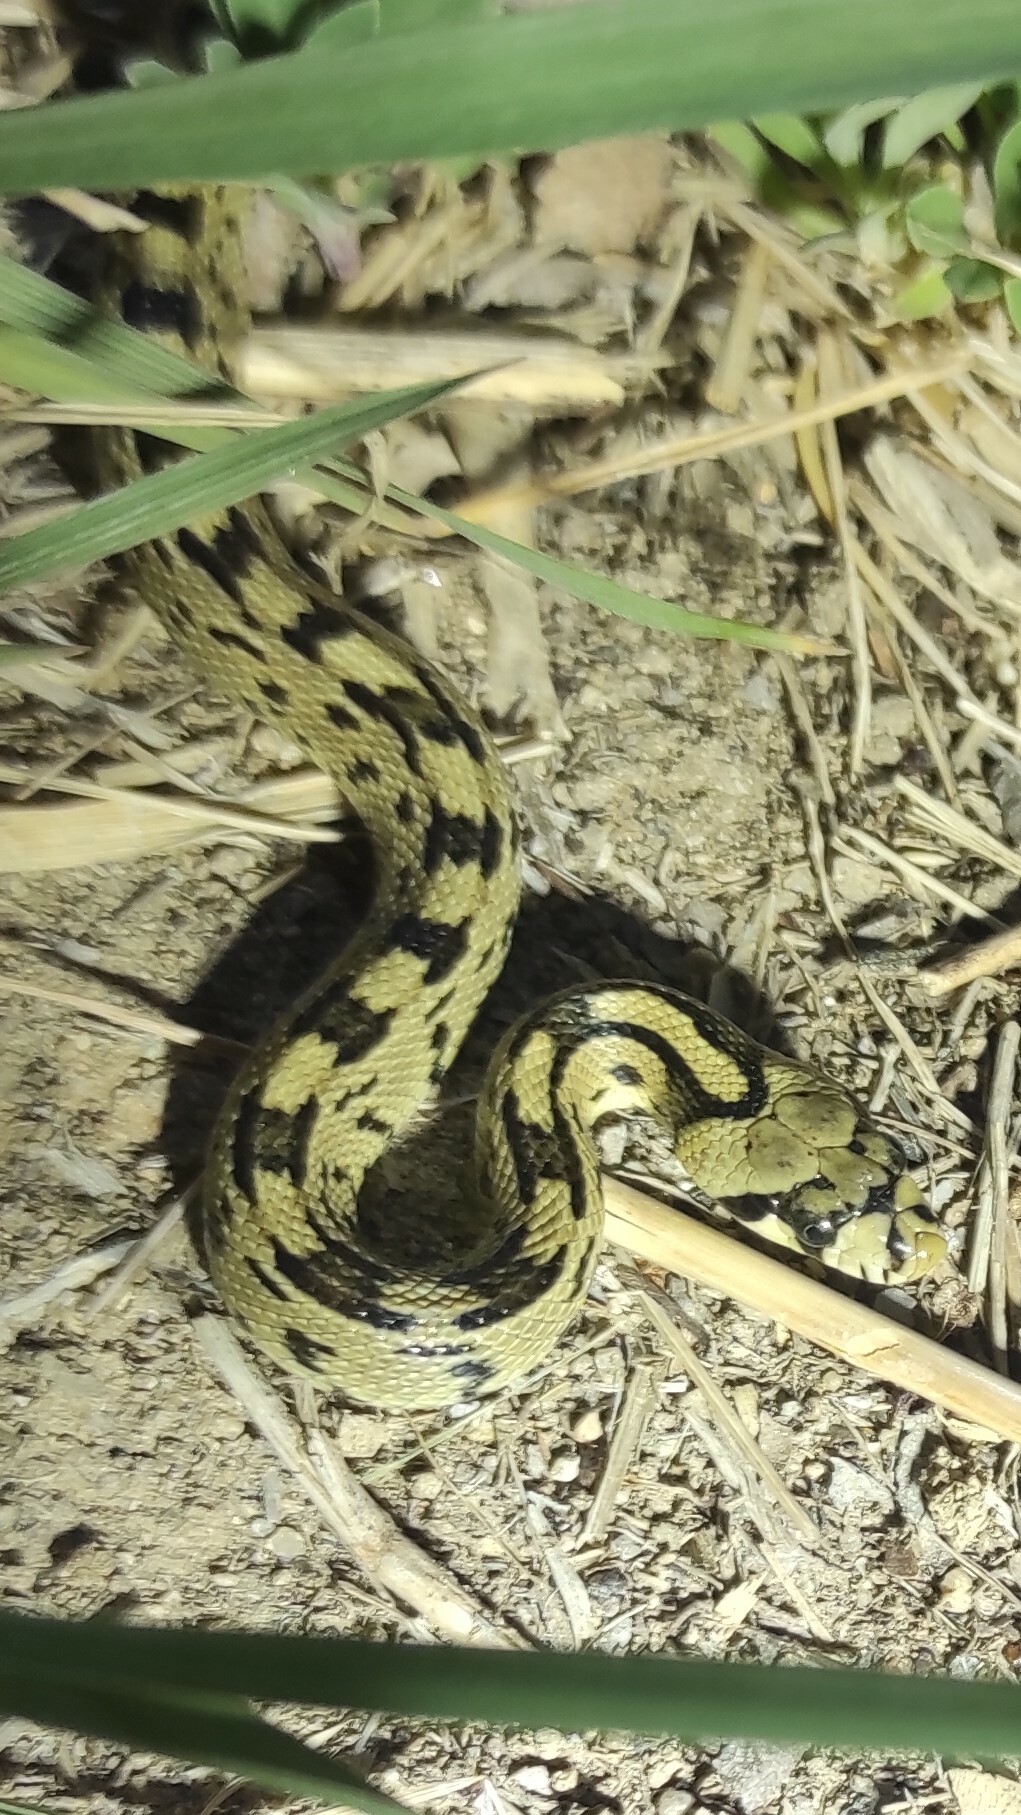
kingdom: Animalia
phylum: Chordata
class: Squamata
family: Colubridae
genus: Zamenis
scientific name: Zamenis scalaris
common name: Ladder snakes
